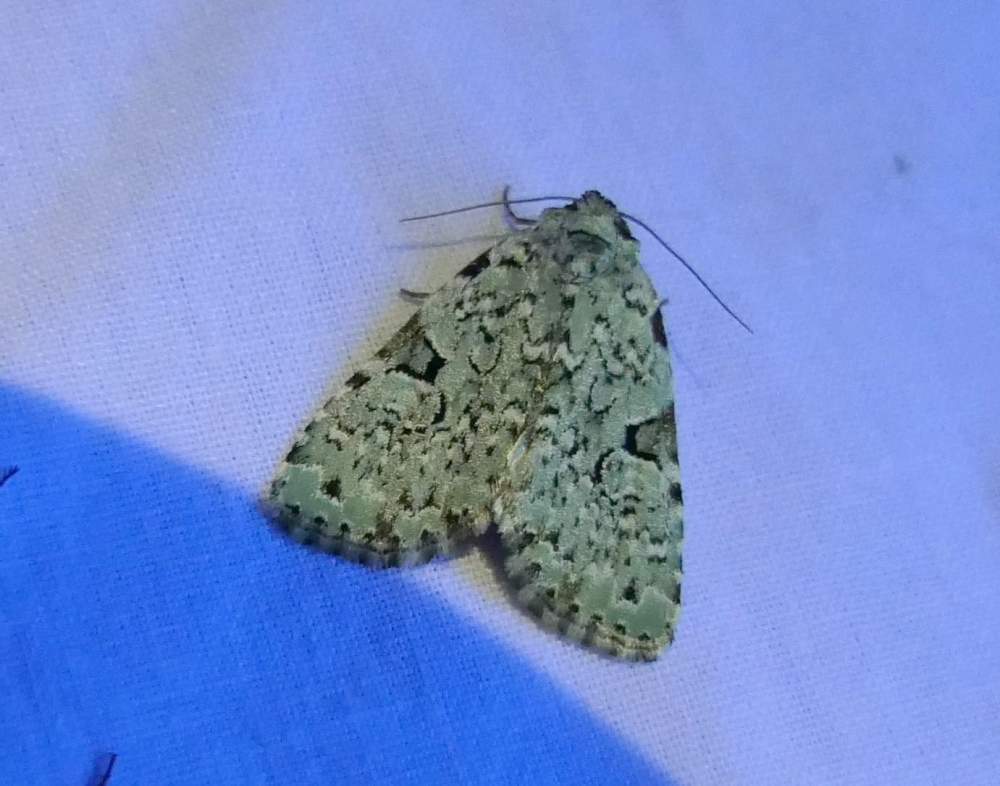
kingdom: Animalia
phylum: Arthropoda
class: Insecta
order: Lepidoptera
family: Noctuidae
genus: Leuconycta
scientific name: Leuconycta diphteroides
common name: Green leuconycta moth
